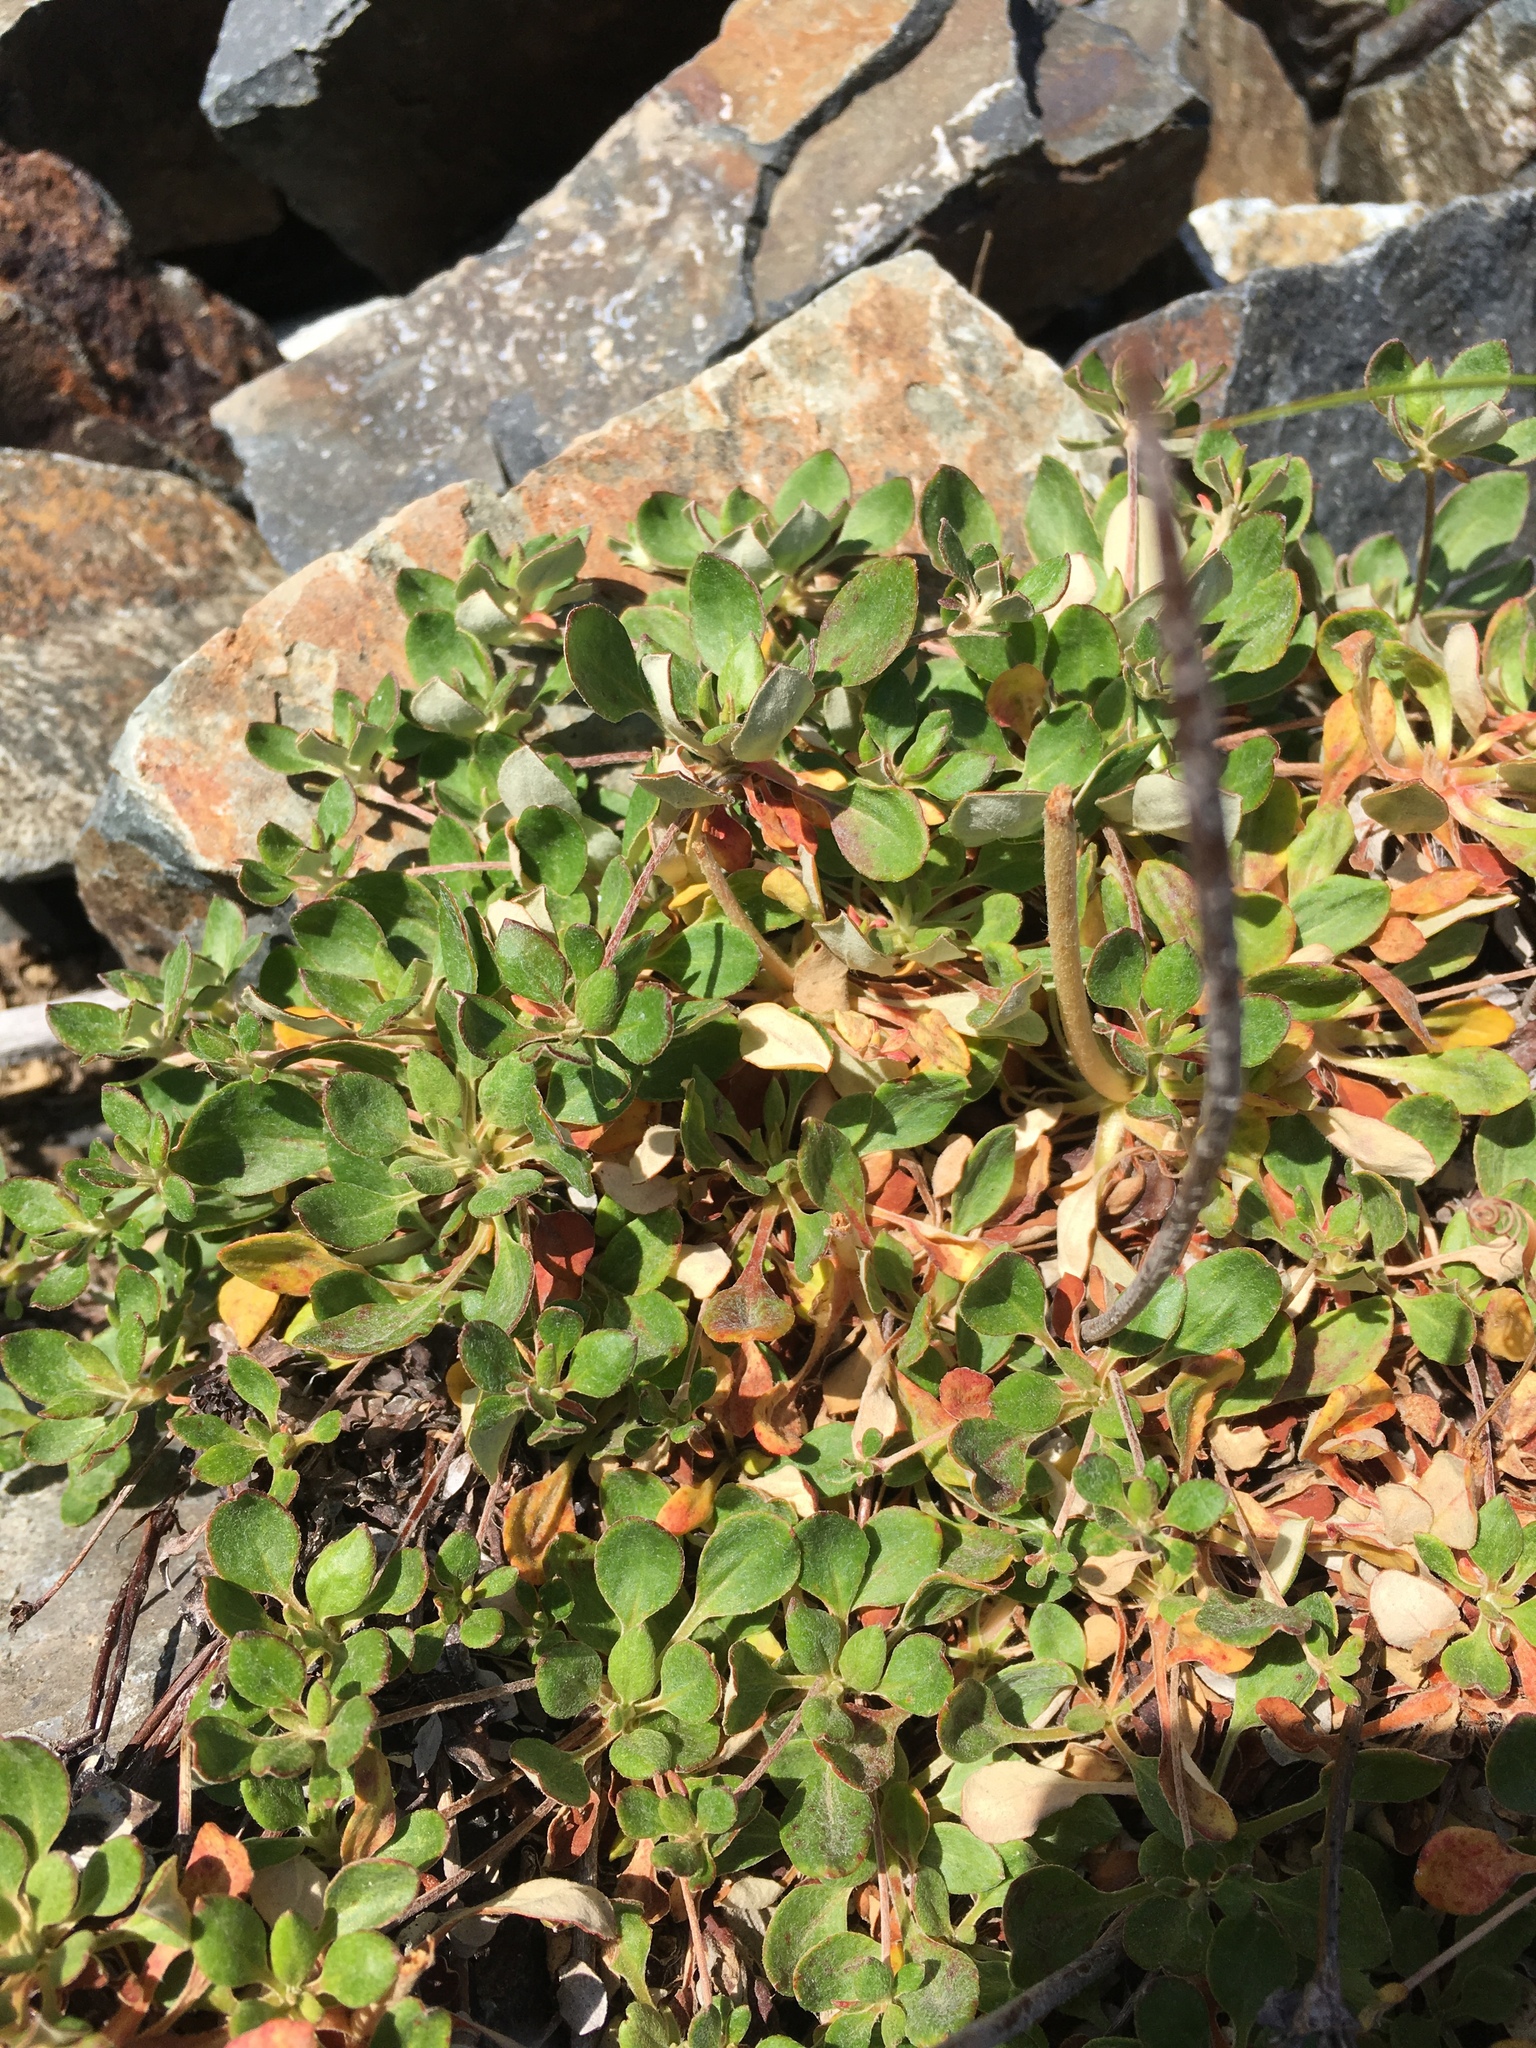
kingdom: Plantae
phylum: Tracheophyta
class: Magnoliopsida
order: Caryophyllales
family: Polygonaceae
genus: Eriogonum
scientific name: Eriogonum umbellatum
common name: Sulfur-buckwheat
